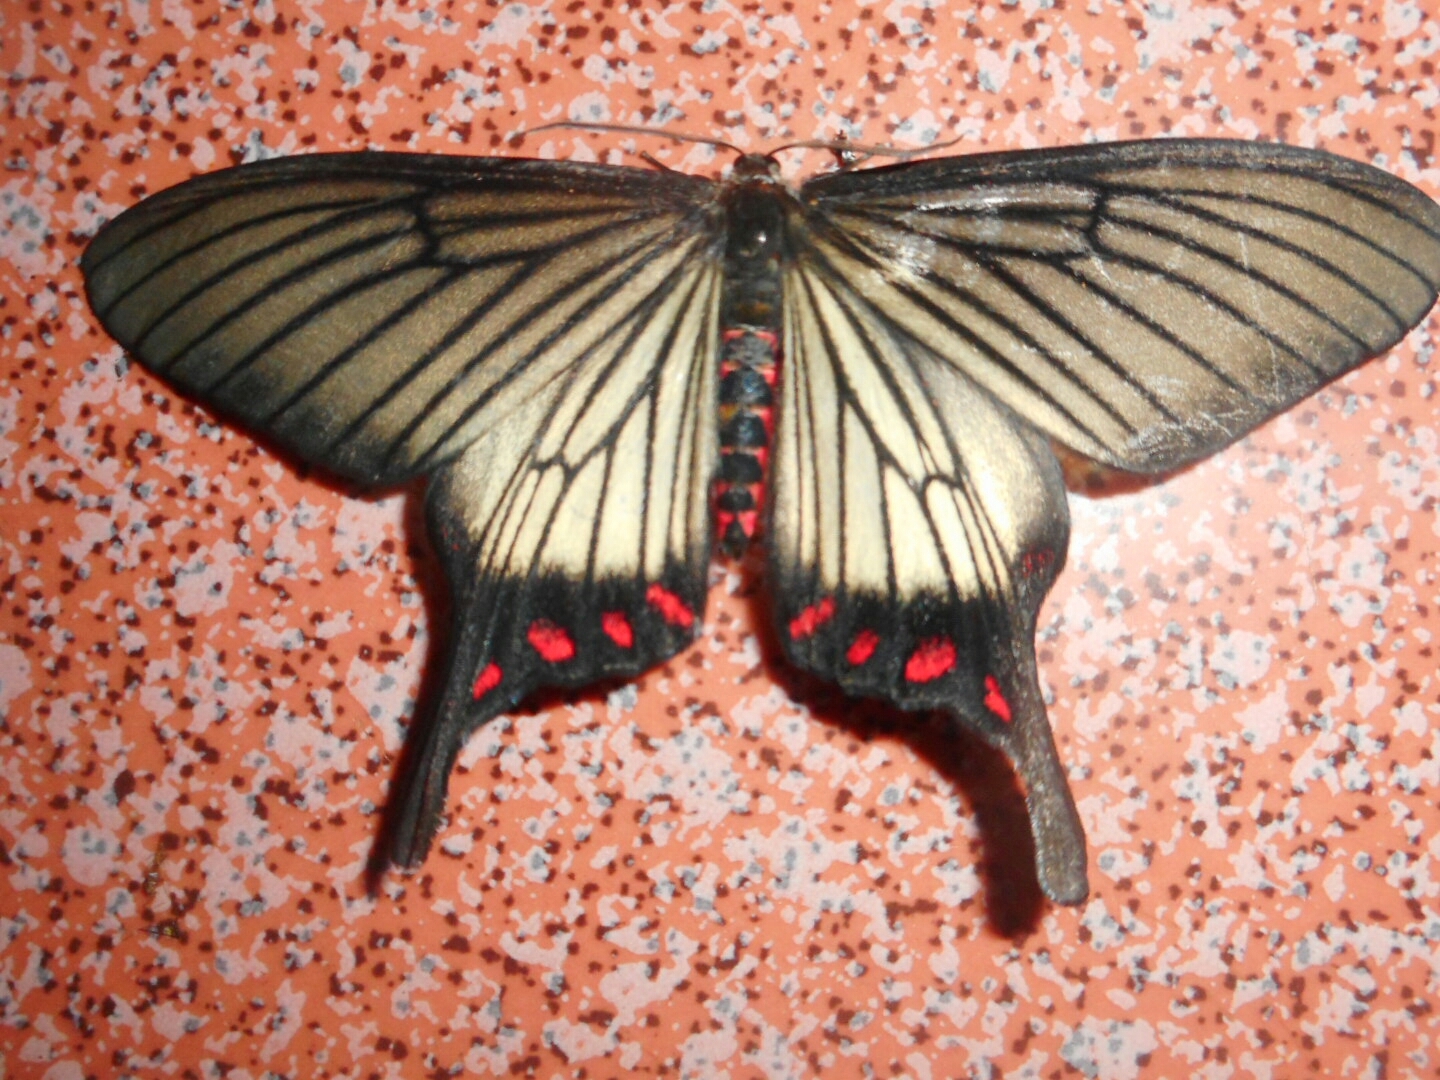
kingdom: Animalia
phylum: Arthropoda
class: Insecta
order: Lepidoptera
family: Epicopeiidae
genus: Epicopeia
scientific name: Epicopeia hainesii
